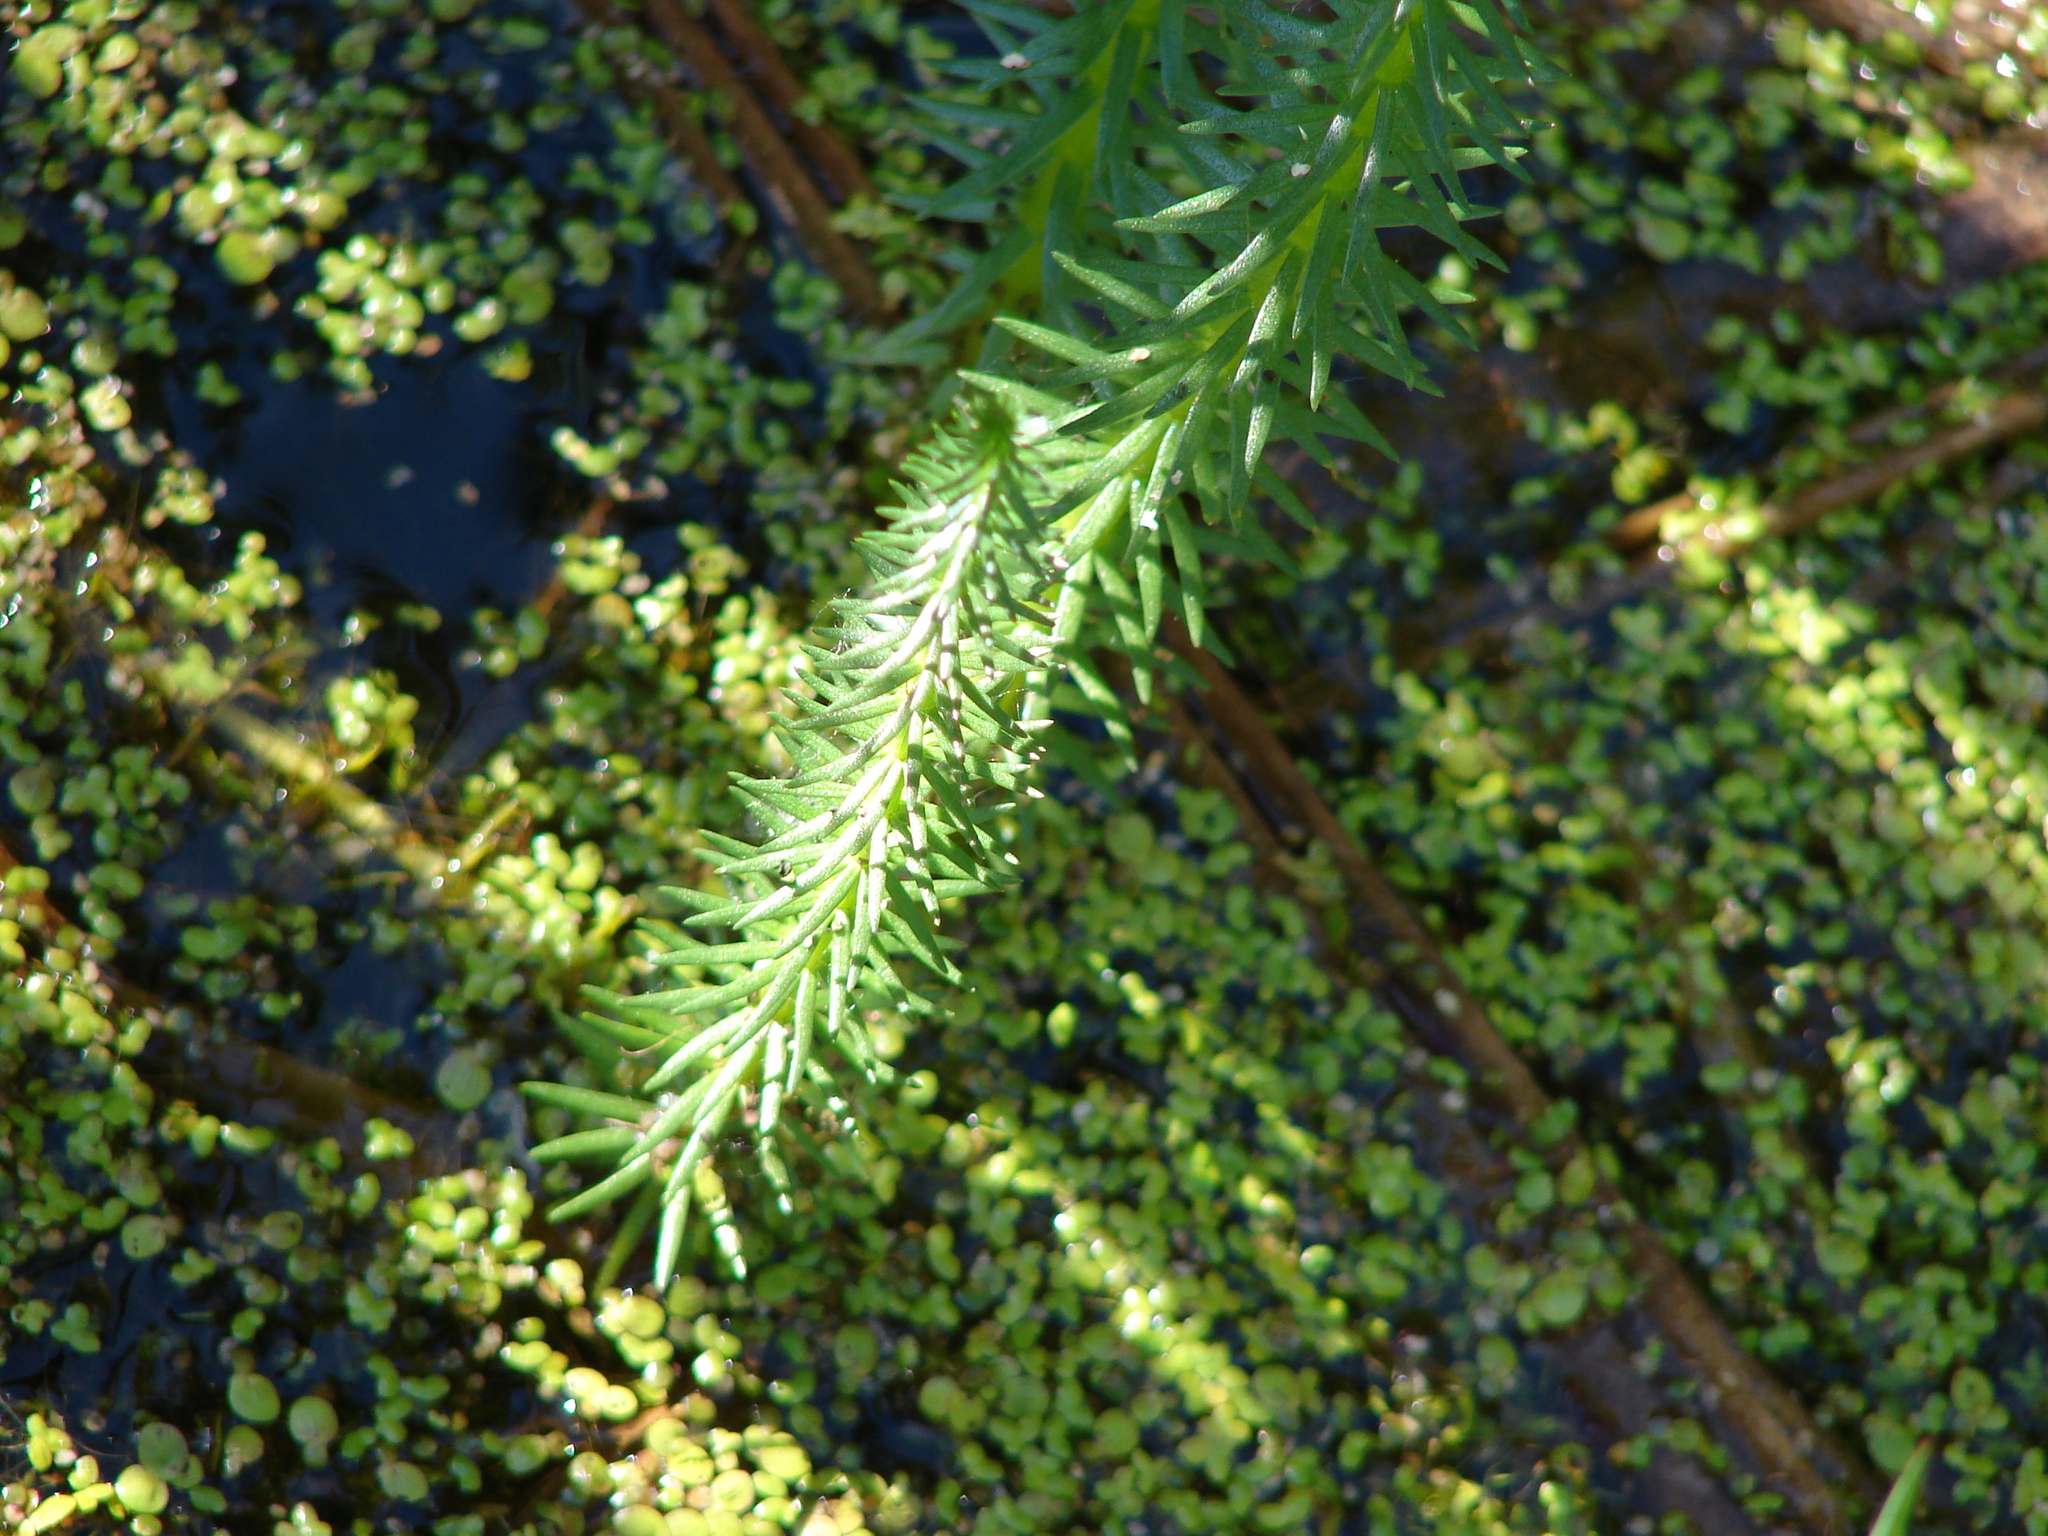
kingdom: Plantae
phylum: Tracheophyta
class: Magnoliopsida
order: Lamiales
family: Plantaginaceae
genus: Hippuris
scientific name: Hippuris vulgaris
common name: Mare's-tail
